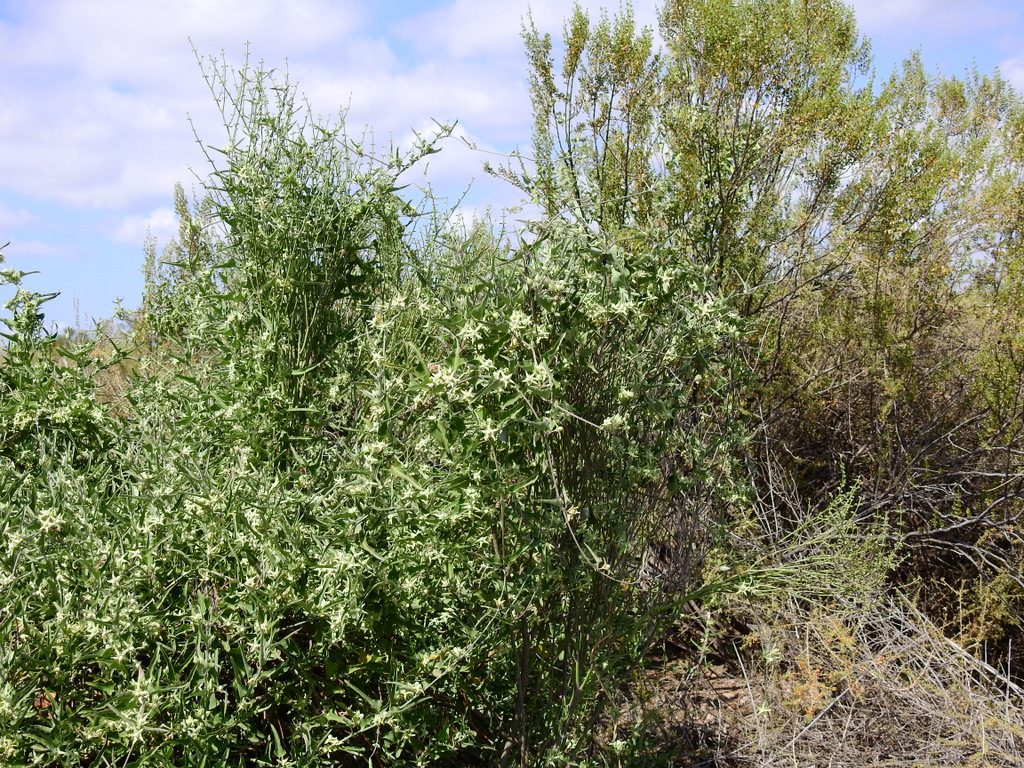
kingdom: Plantae
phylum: Tracheophyta
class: Magnoliopsida
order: Gentianales
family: Apocynaceae
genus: Araujia
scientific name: Araujia odorata
